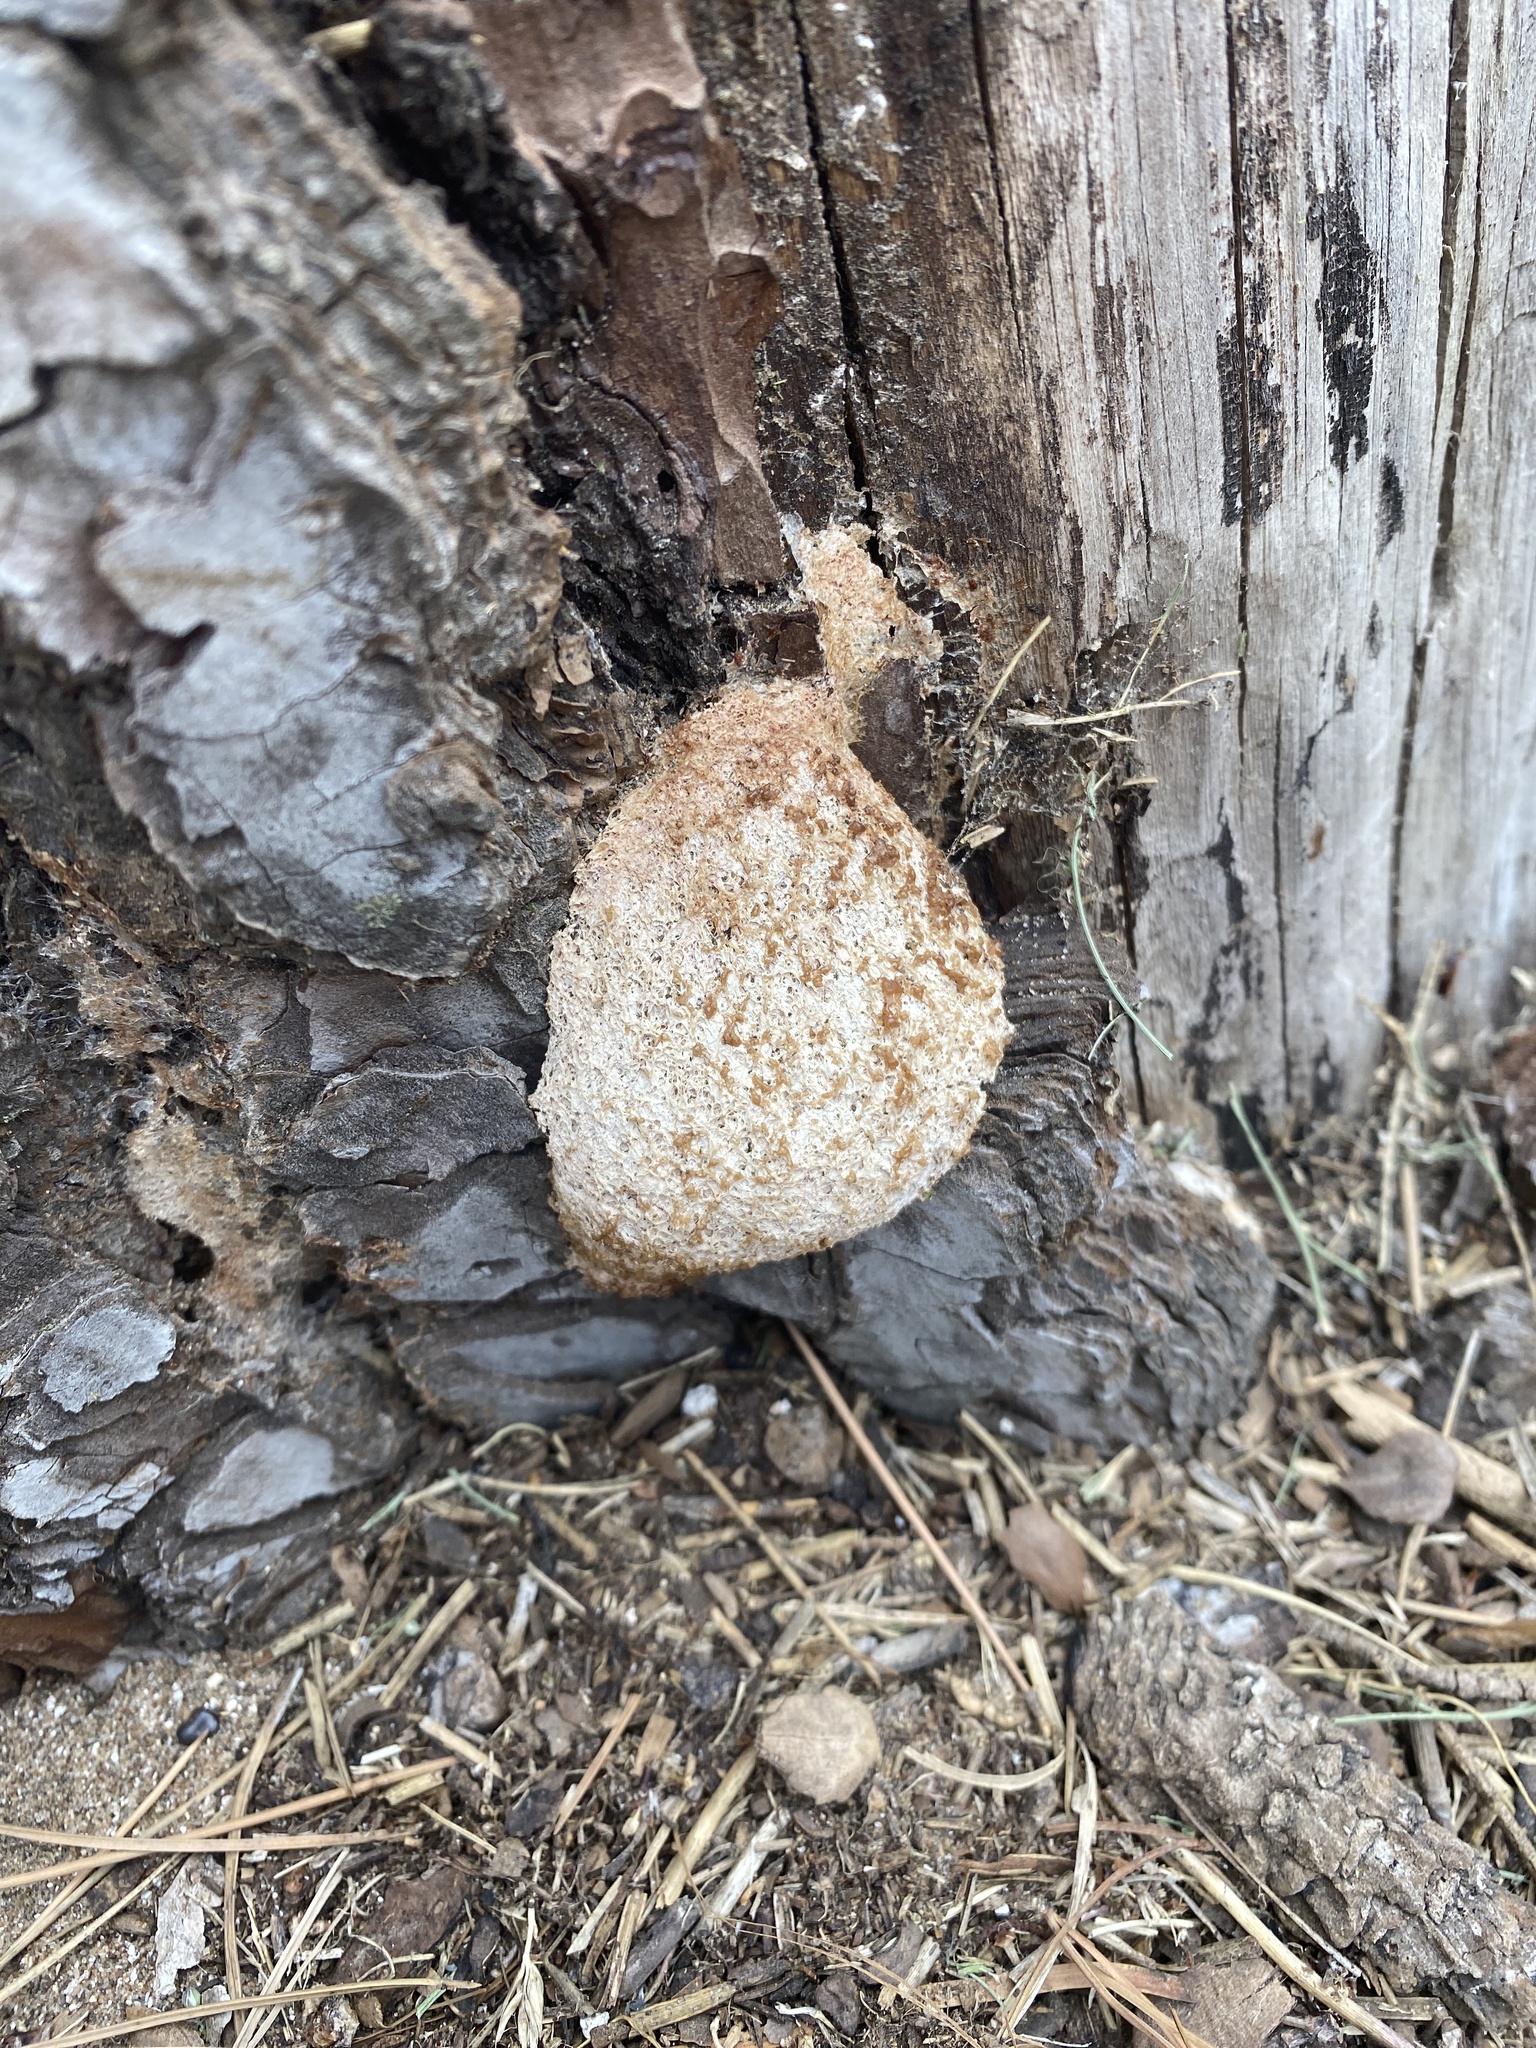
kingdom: Protozoa
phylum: Mycetozoa
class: Myxomycetes
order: Physarales
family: Physaraceae
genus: Fuligo
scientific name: Fuligo septica
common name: Dog vomit slime mold
